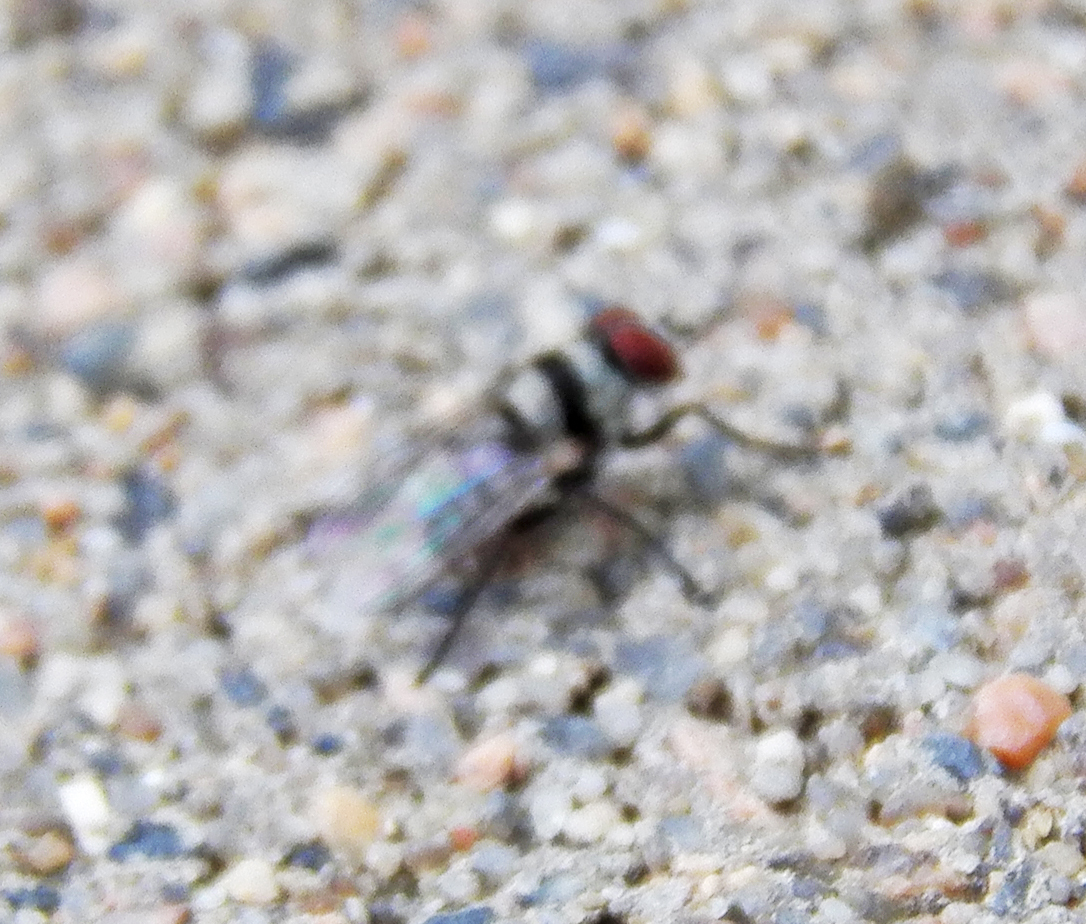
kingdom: Animalia
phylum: Arthropoda
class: Insecta
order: Diptera
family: Anthomyiidae
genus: Anthomyia
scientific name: Anthomyia illocata
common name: Fly
